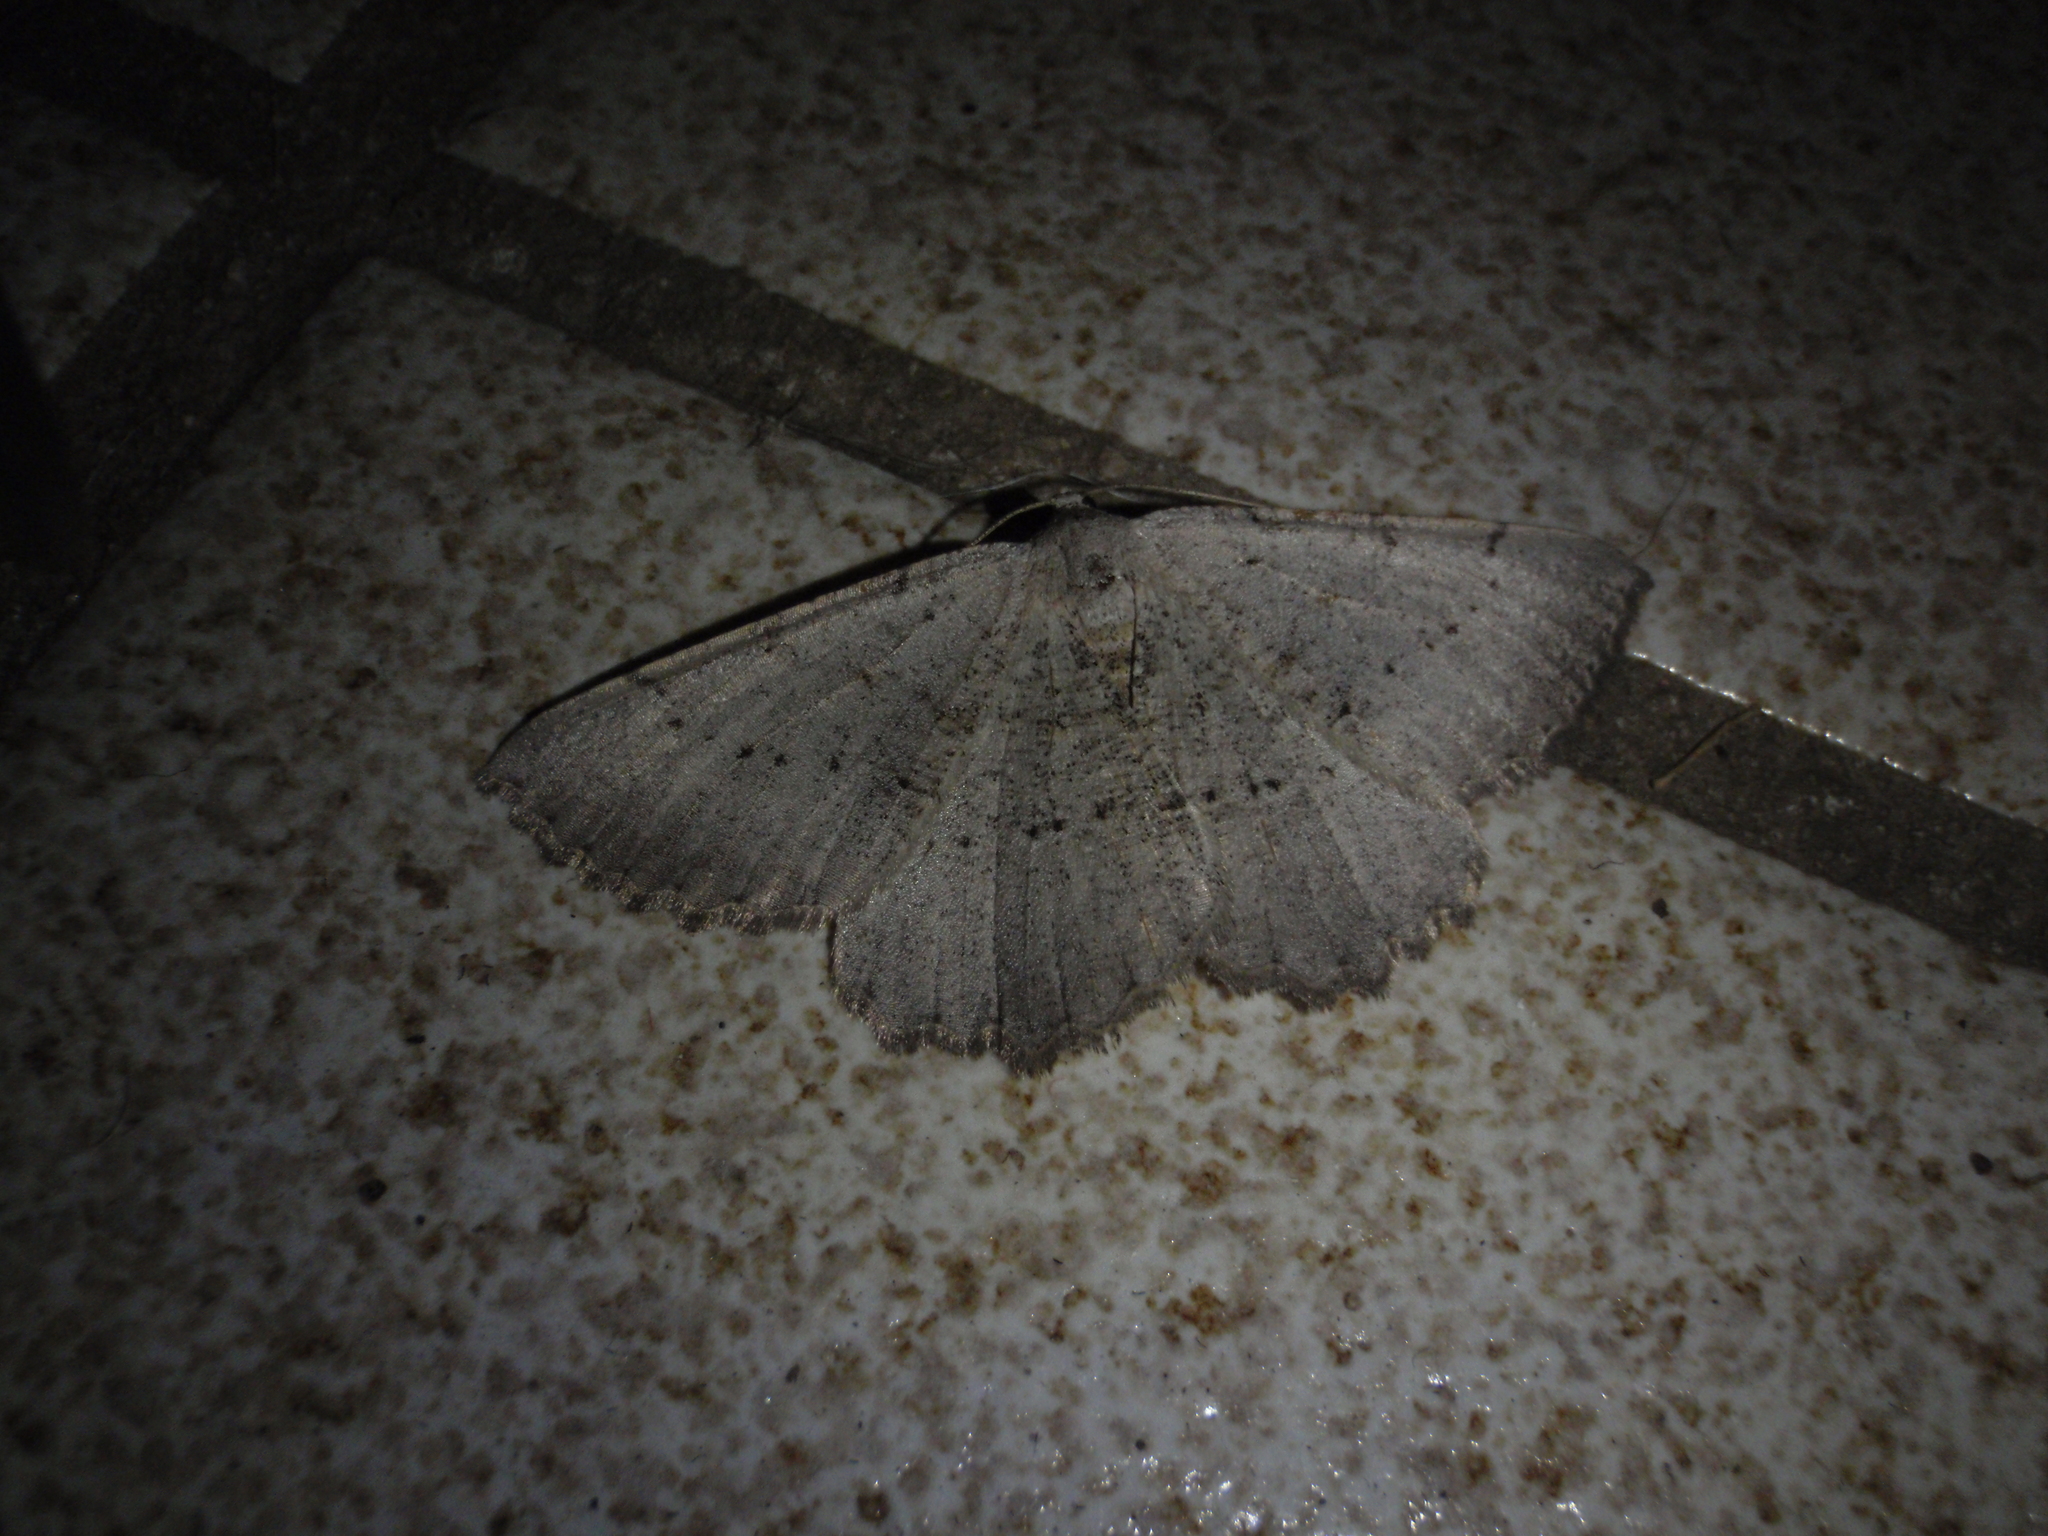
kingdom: Animalia
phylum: Arthropoda
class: Insecta
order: Lepidoptera
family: Geometridae
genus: Odontognophos
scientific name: Odontognophos dumetata
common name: Irish annulet
